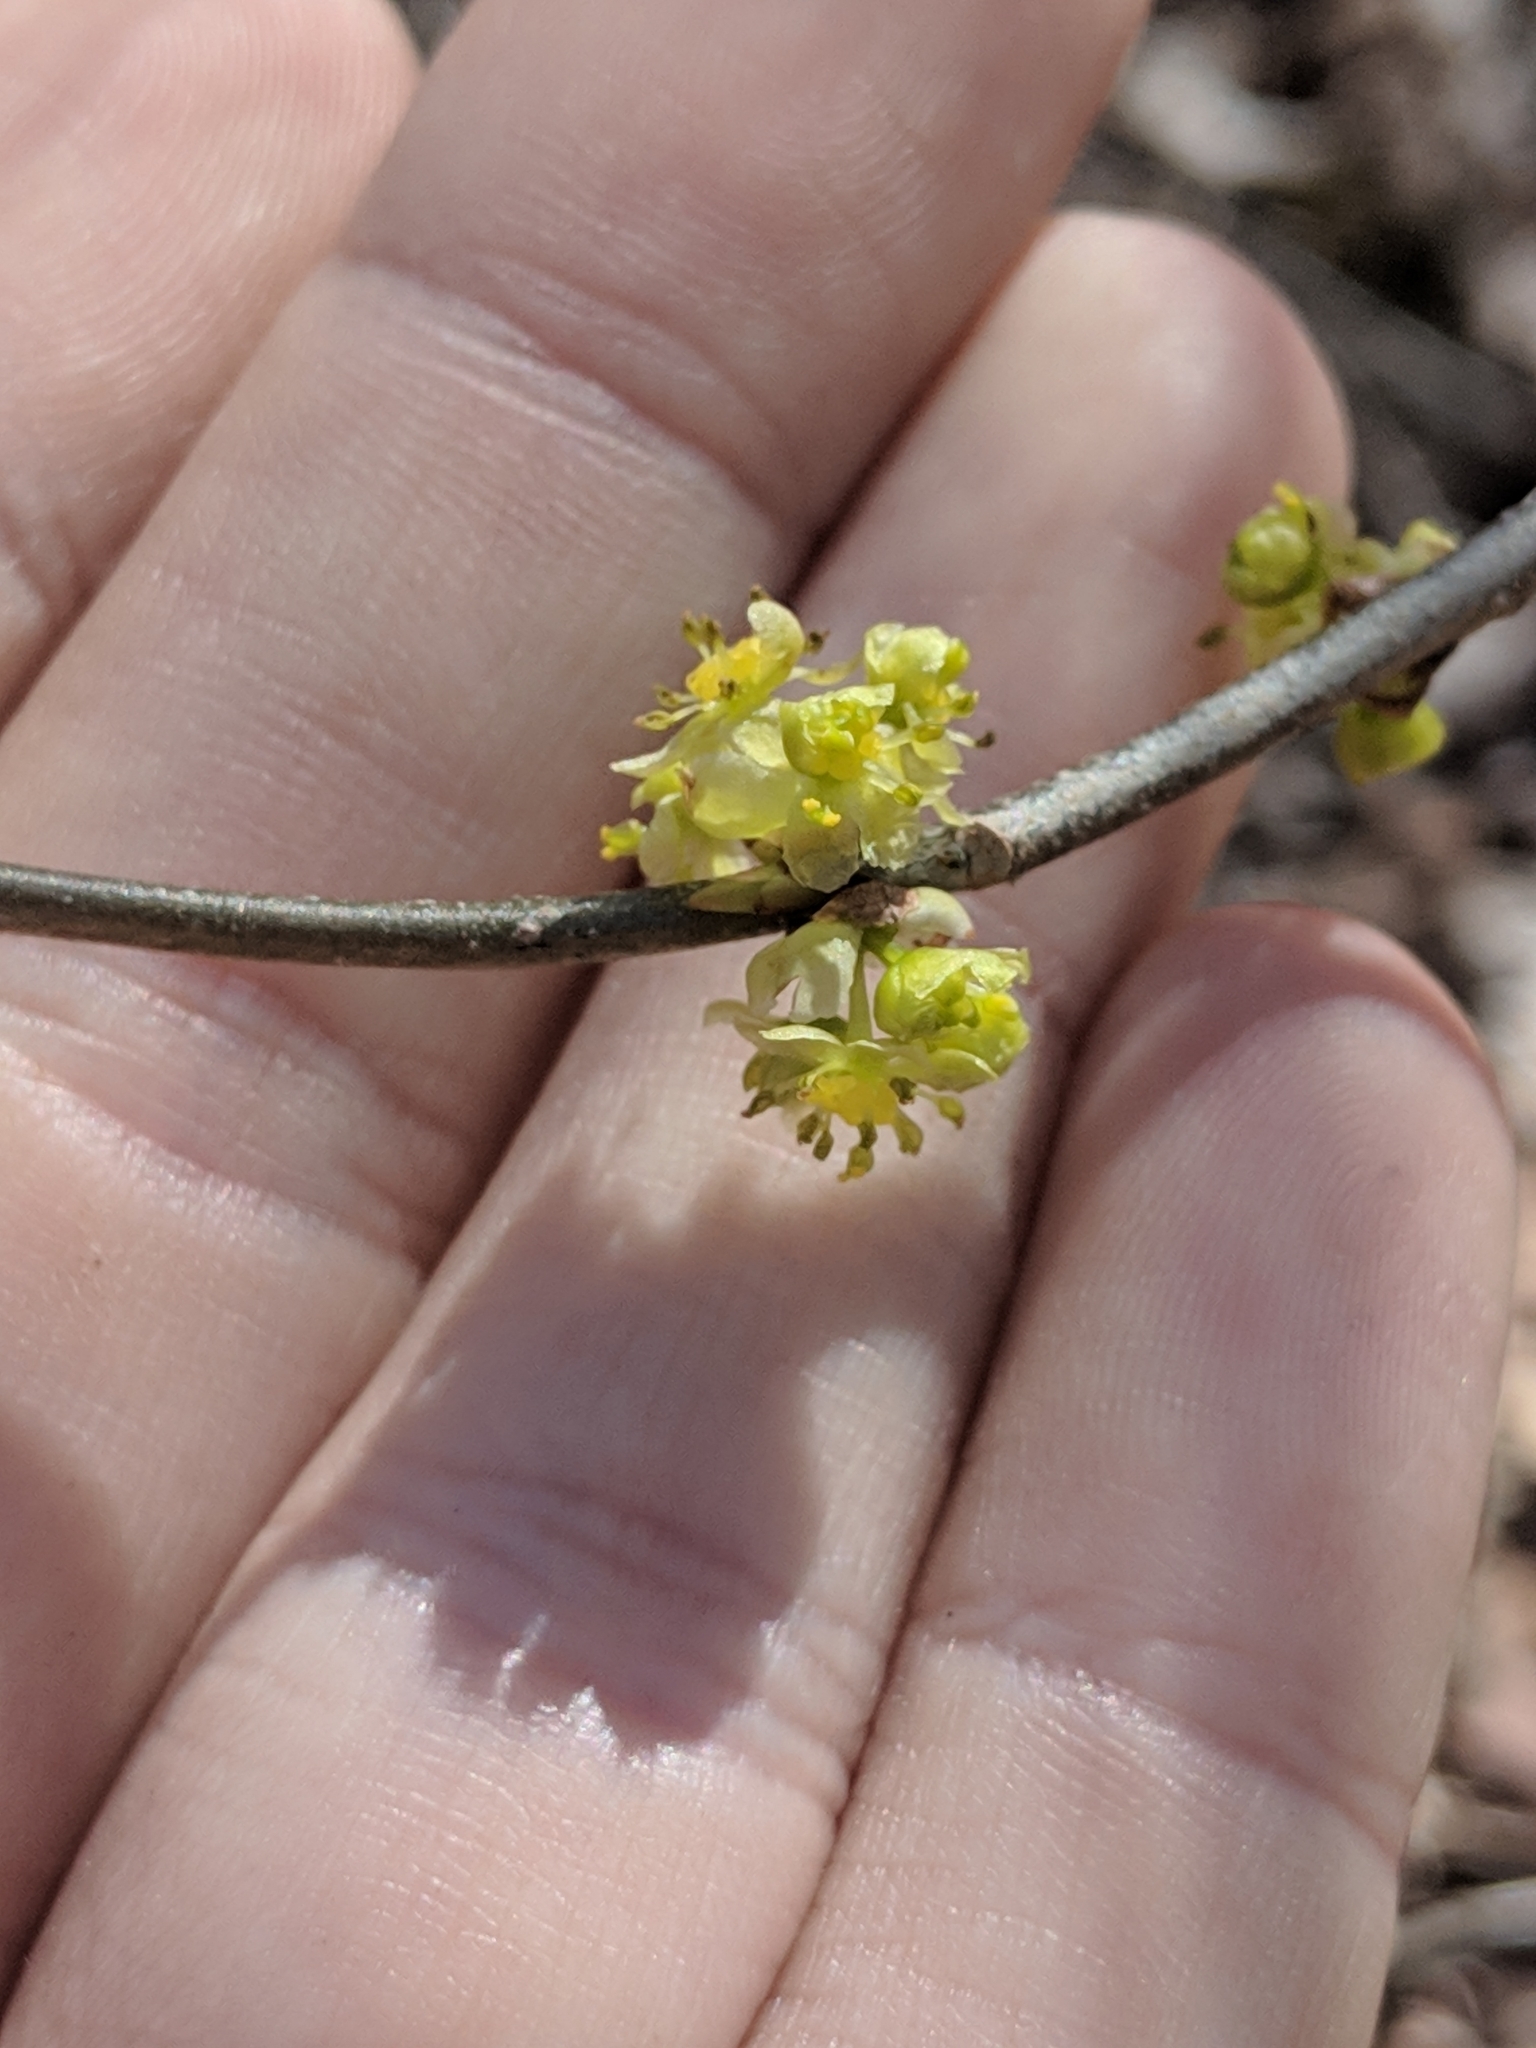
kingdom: Plantae
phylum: Tracheophyta
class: Magnoliopsida
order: Laurales
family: Lauraceae
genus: Lindera
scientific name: Lindera benzoin
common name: Spicebush
